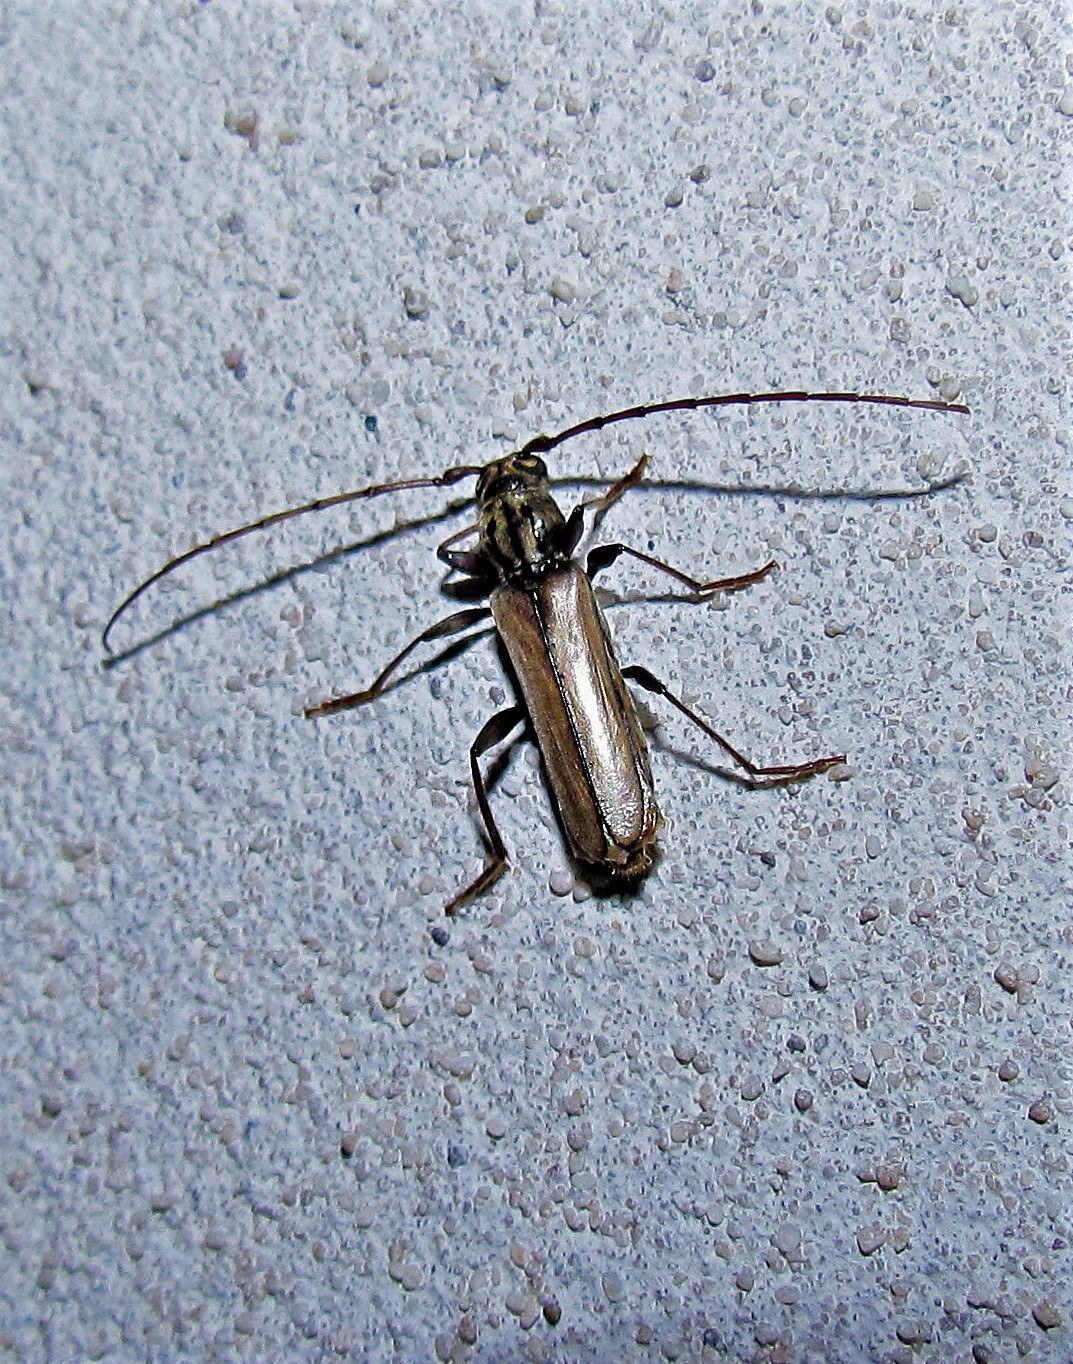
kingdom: Animalia
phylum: Arthropoda
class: Insecta
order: Coleoptera
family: Cerambycidae
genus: Nephalius
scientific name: Nephalius spiniger
